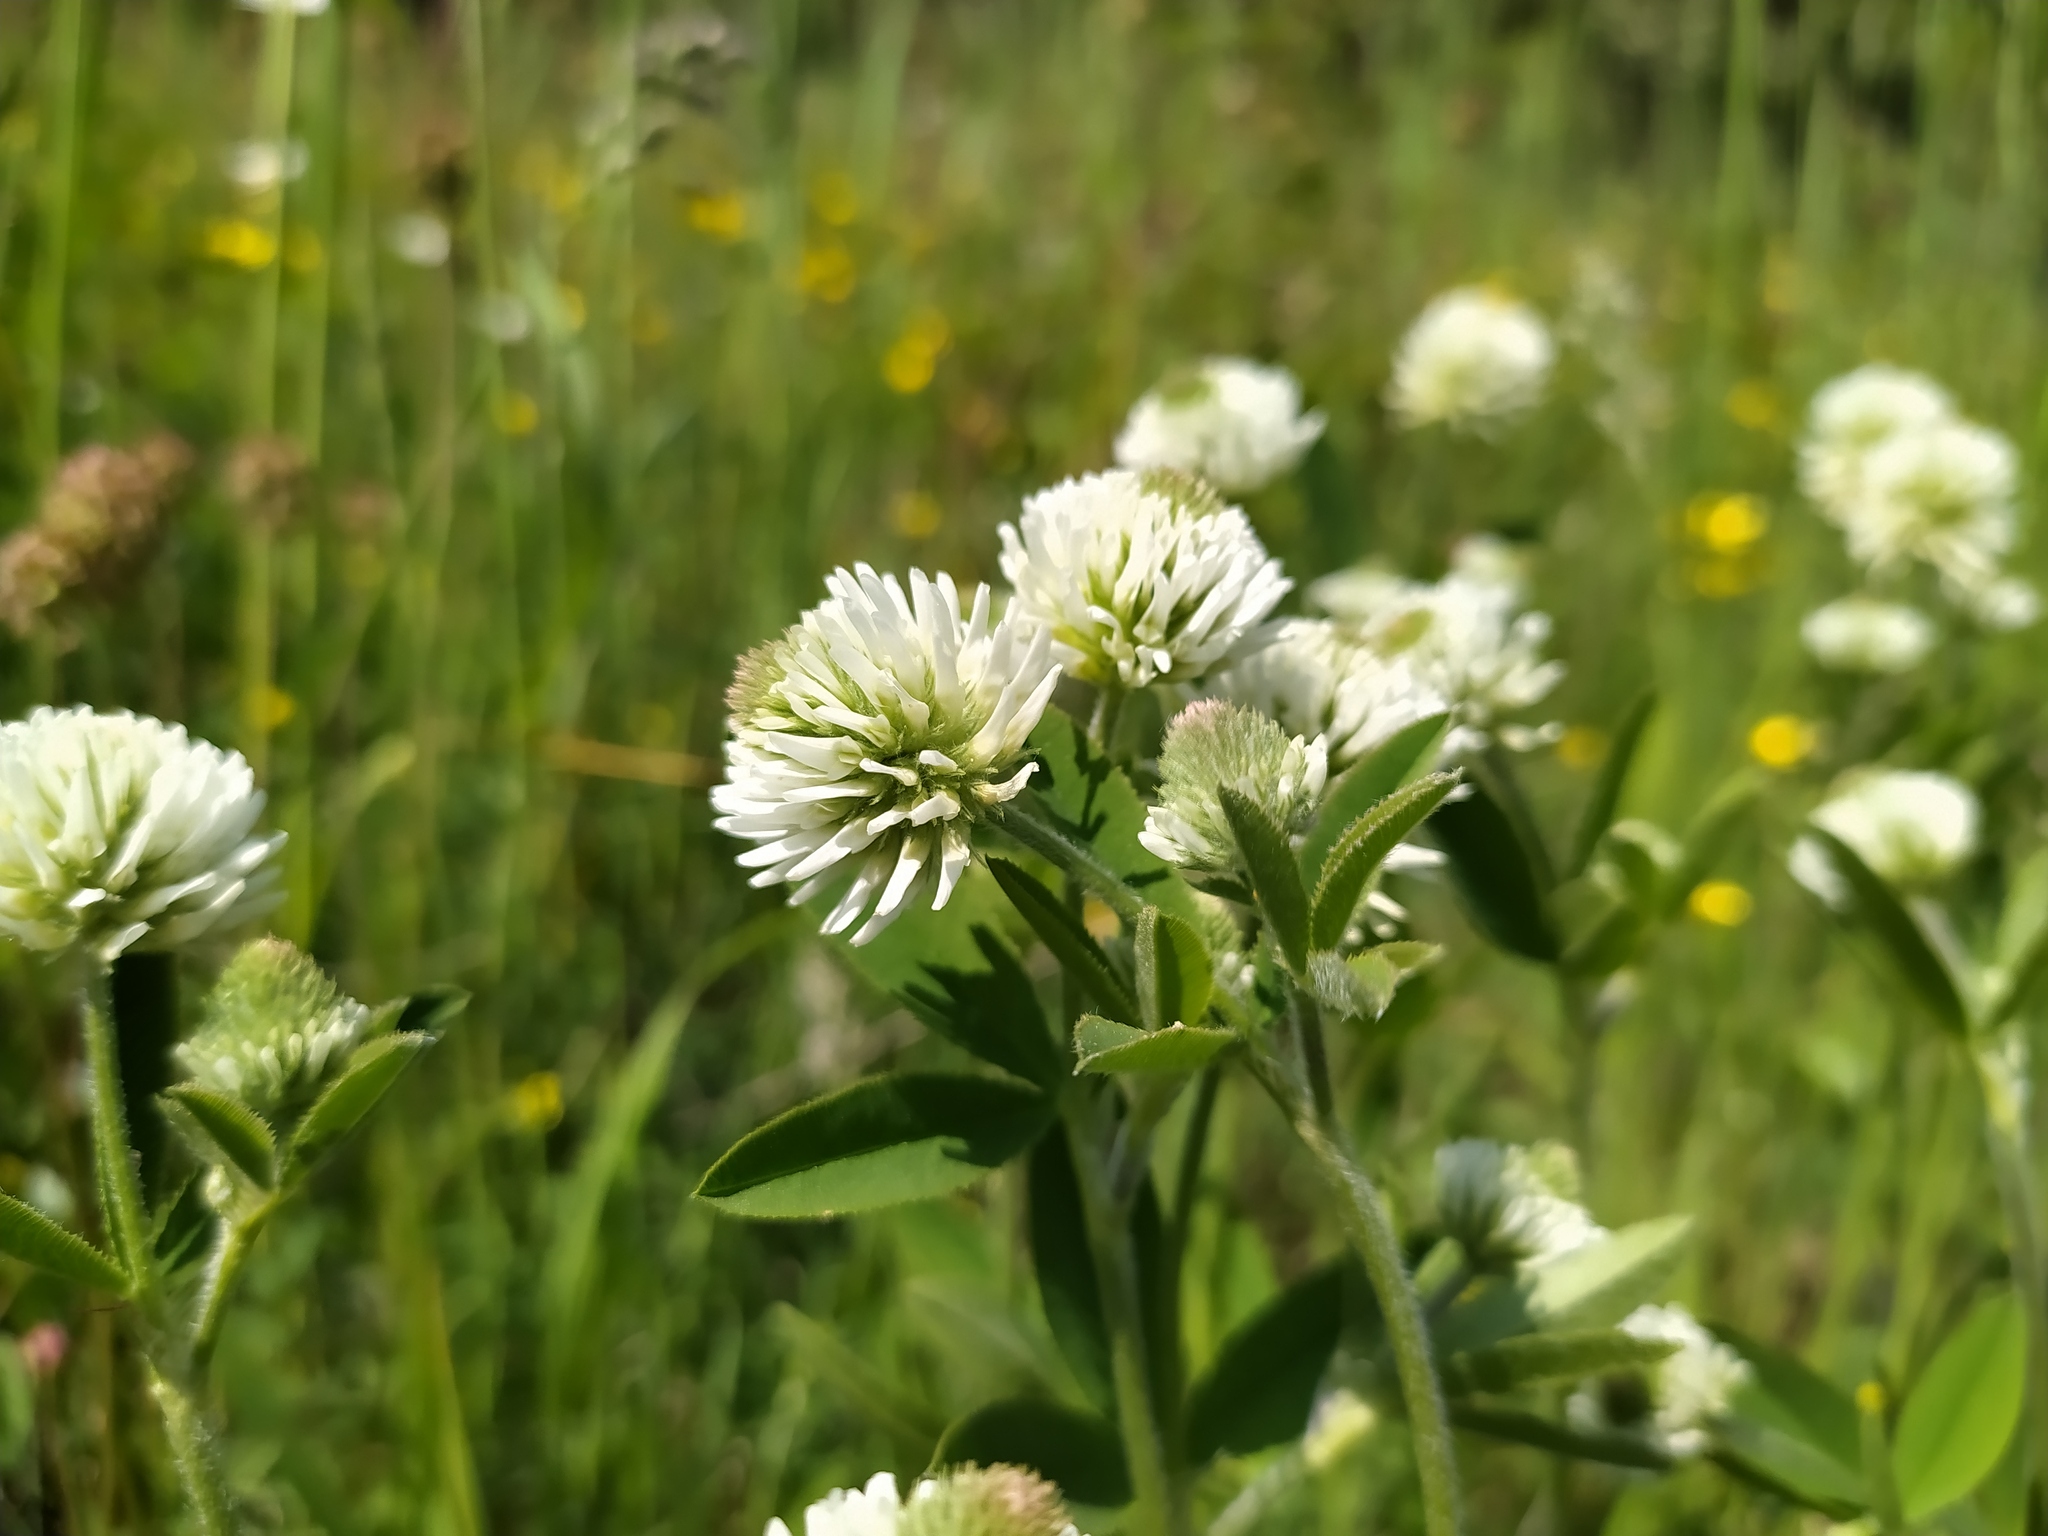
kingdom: Plantae
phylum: Tracheophyta
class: Magnoliopsida
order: Fabales
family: Fabaceae
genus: Trifolium
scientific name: Trifolium montanum
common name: Mountain clover
